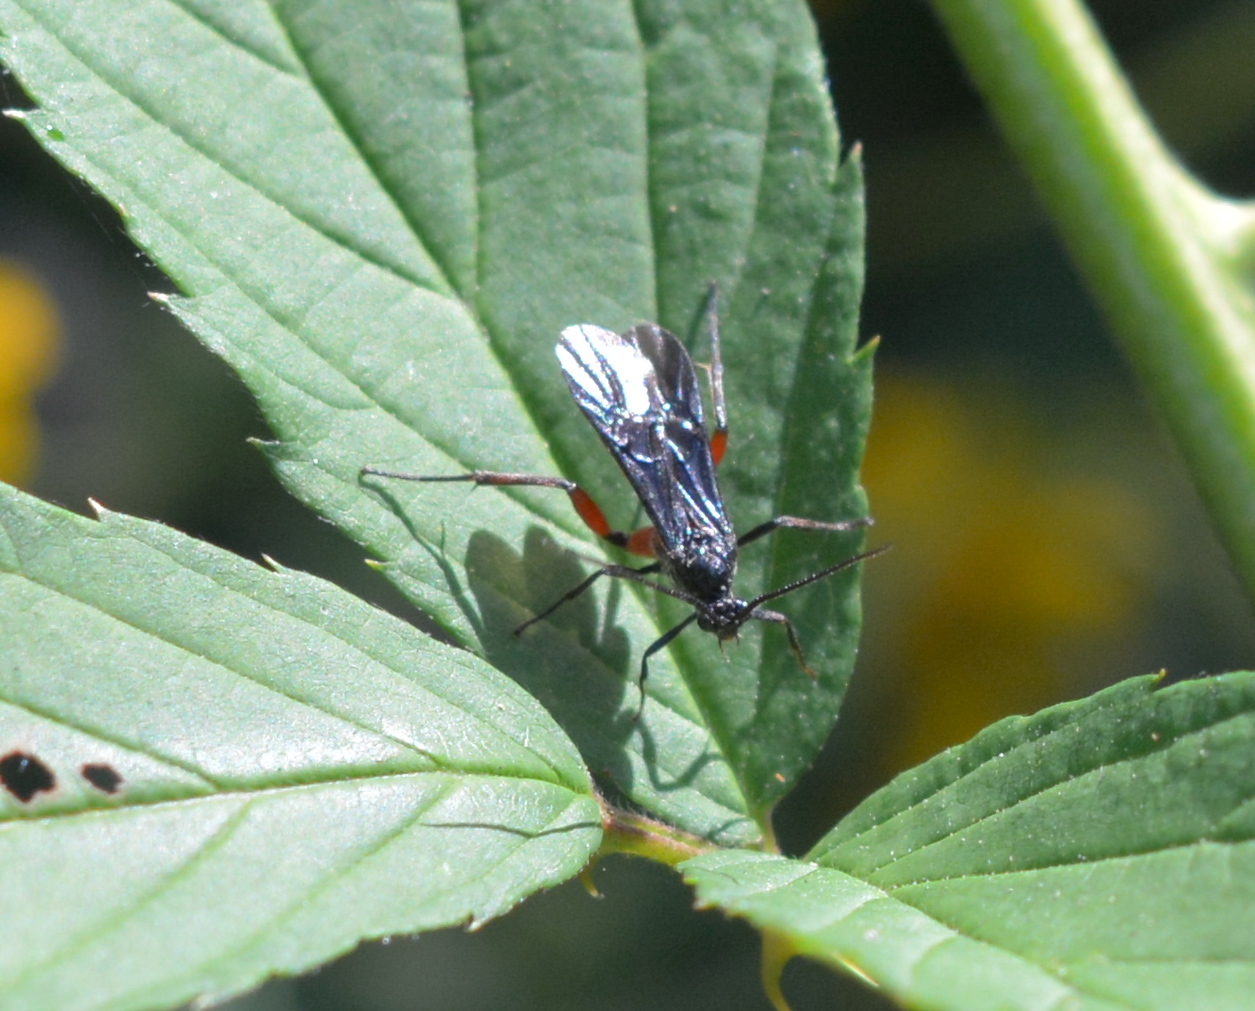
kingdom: Animalia
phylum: Arthropoda
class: Insecta
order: Hymenoptera
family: Braconidae
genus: Alabagrus
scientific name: Alabagrus texanus
